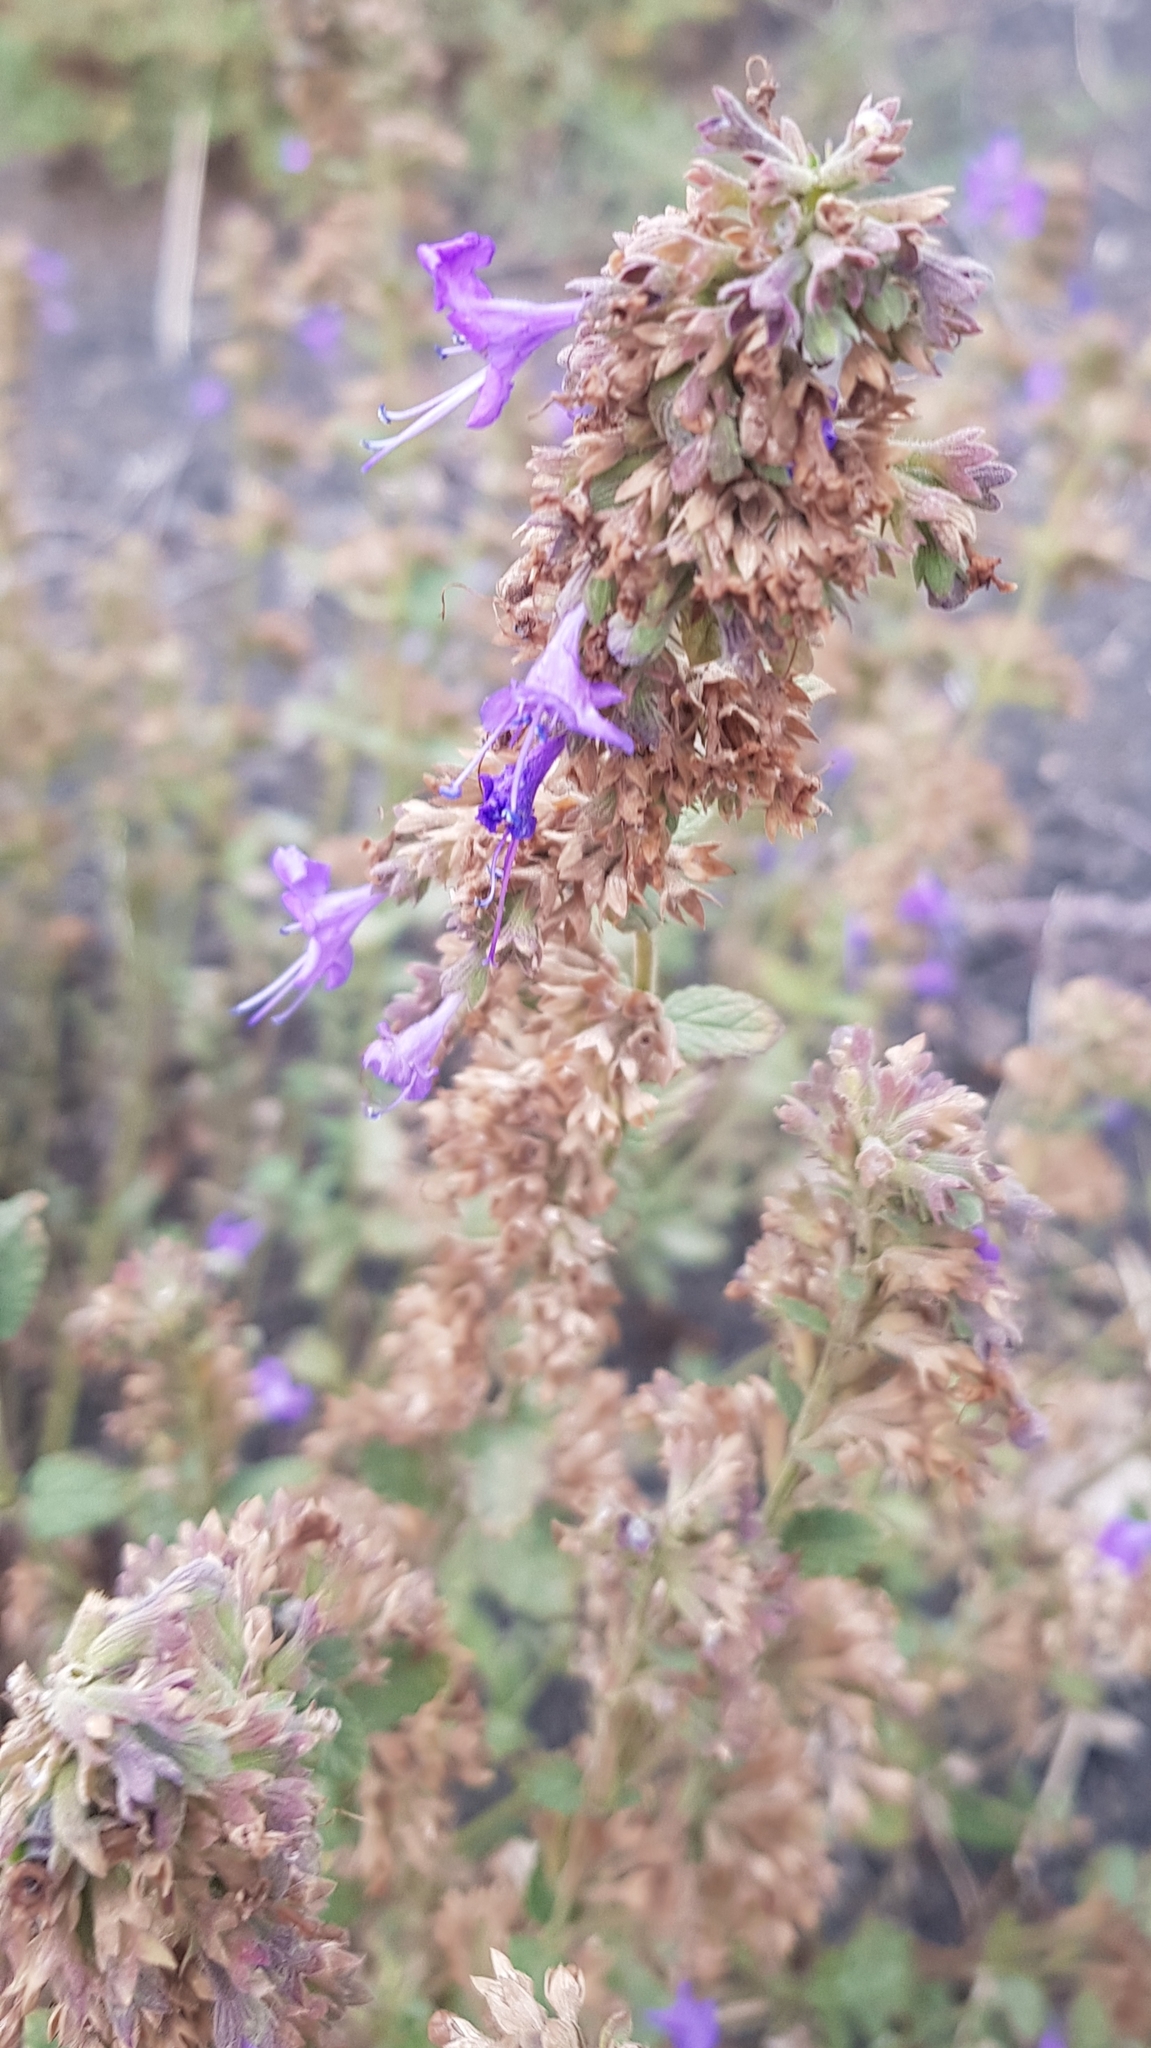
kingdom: Plantae
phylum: Tracheophyta
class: Magnoliopsida
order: Lamiales
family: Lamiaceae
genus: Dracocephalum
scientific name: Dracocephalum nutans
